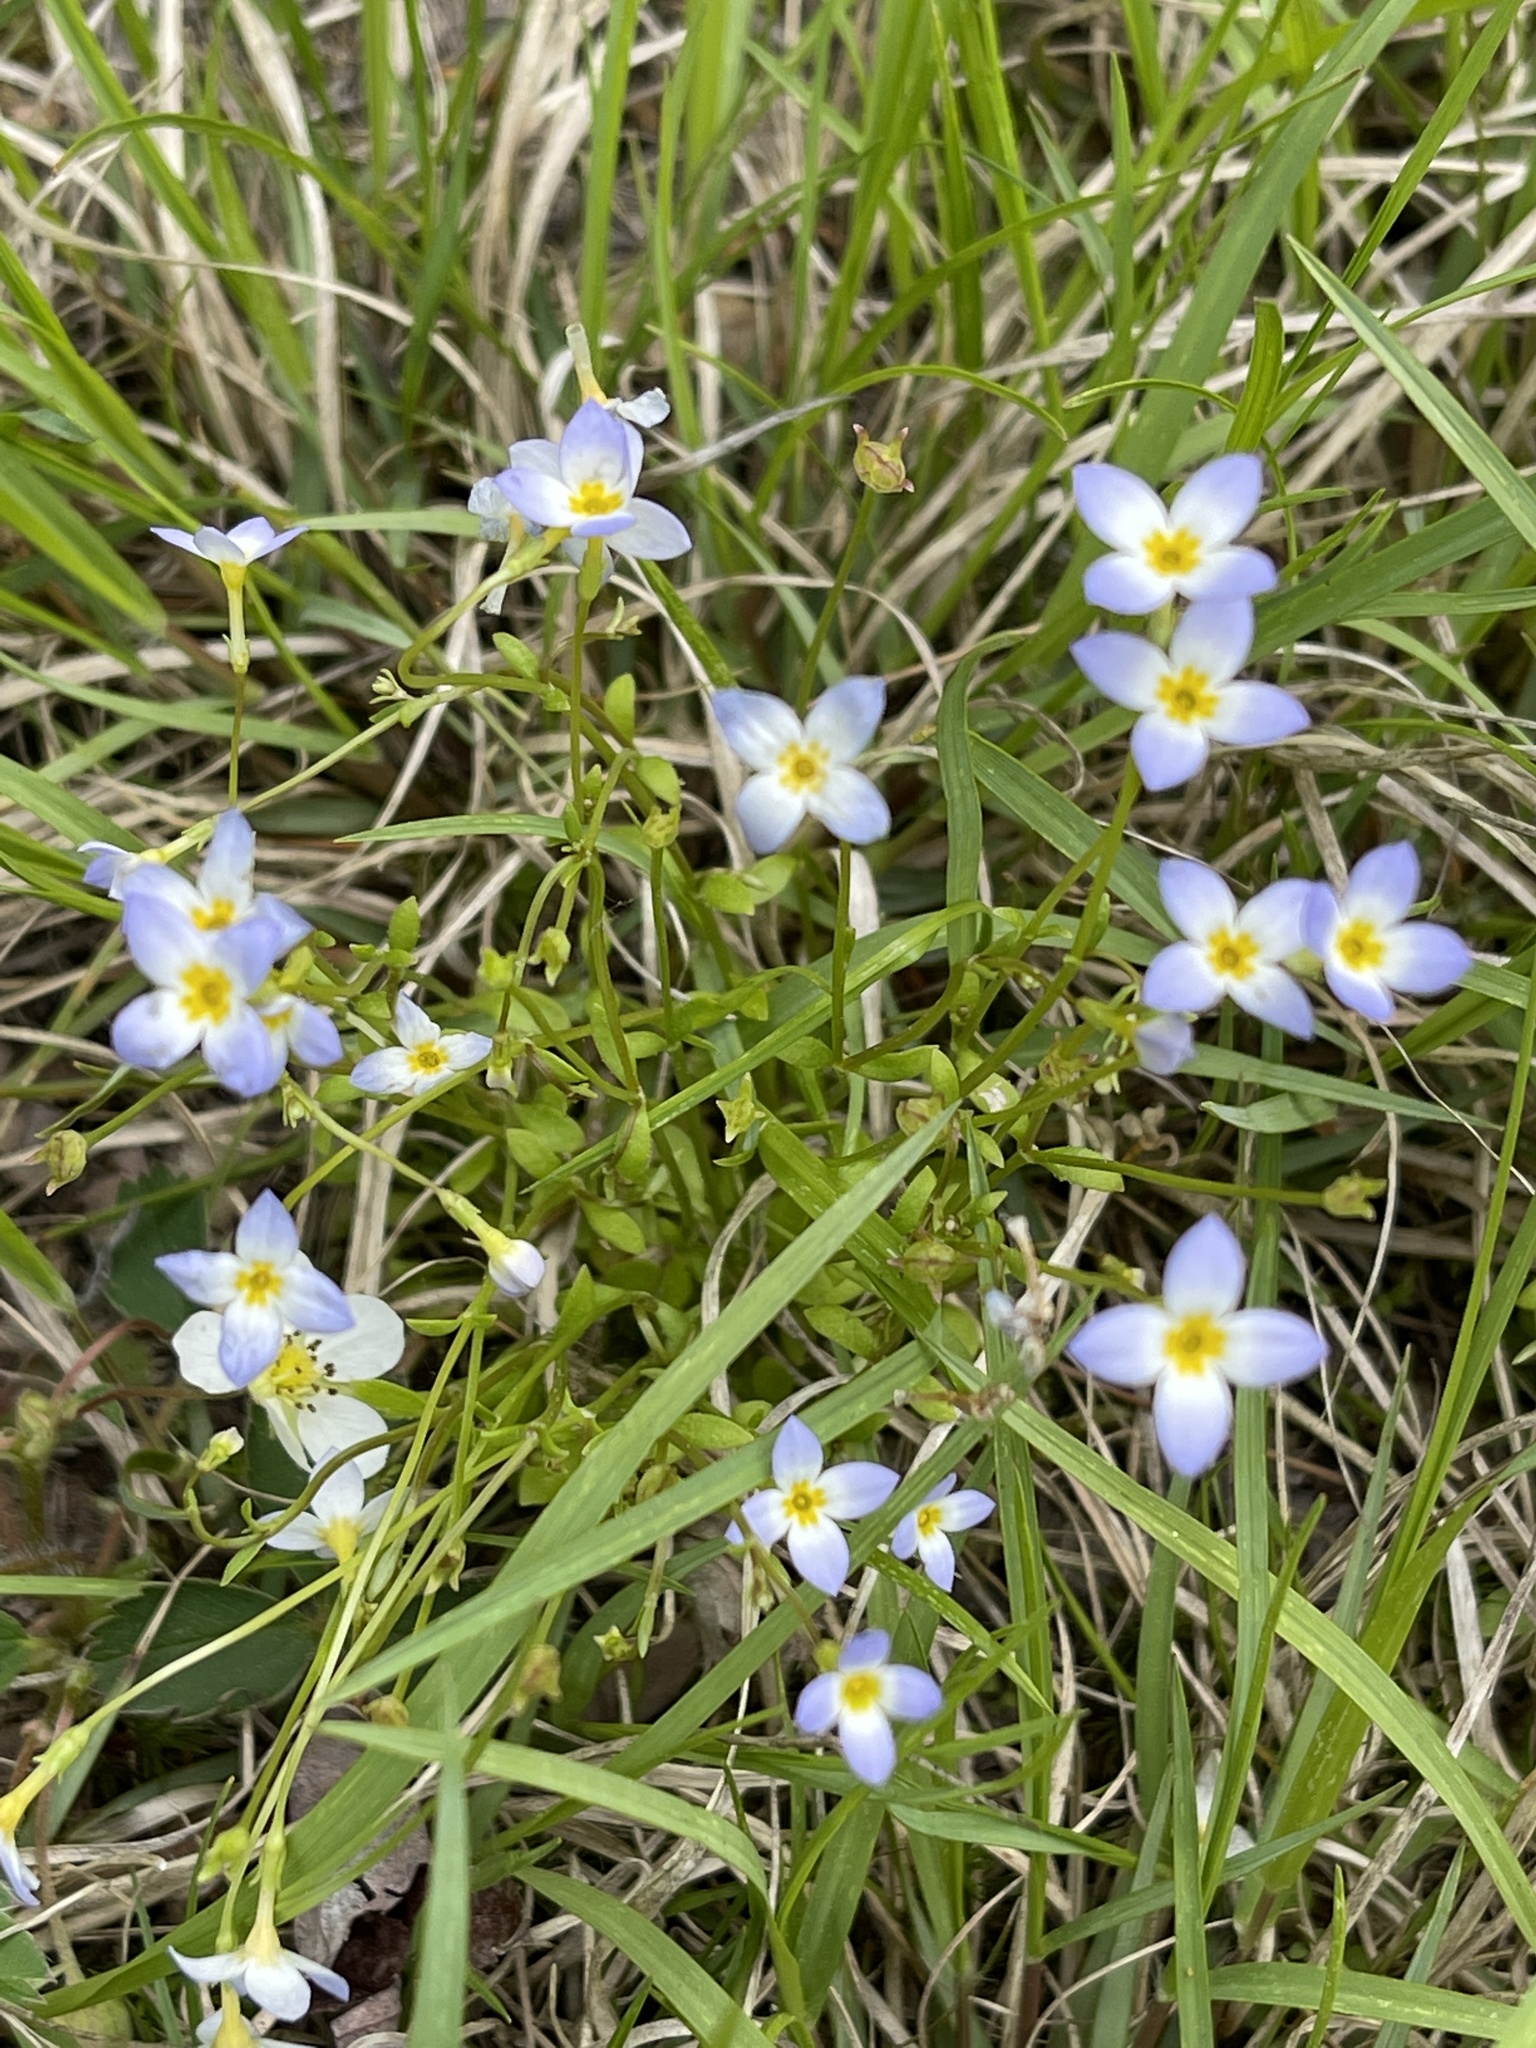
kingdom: Plantae
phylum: Tracheophyta
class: Magnoliopsida
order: Gentianales
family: Rubiaceae
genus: Houstonia
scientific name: Houstonia caerulea
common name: Bluets
